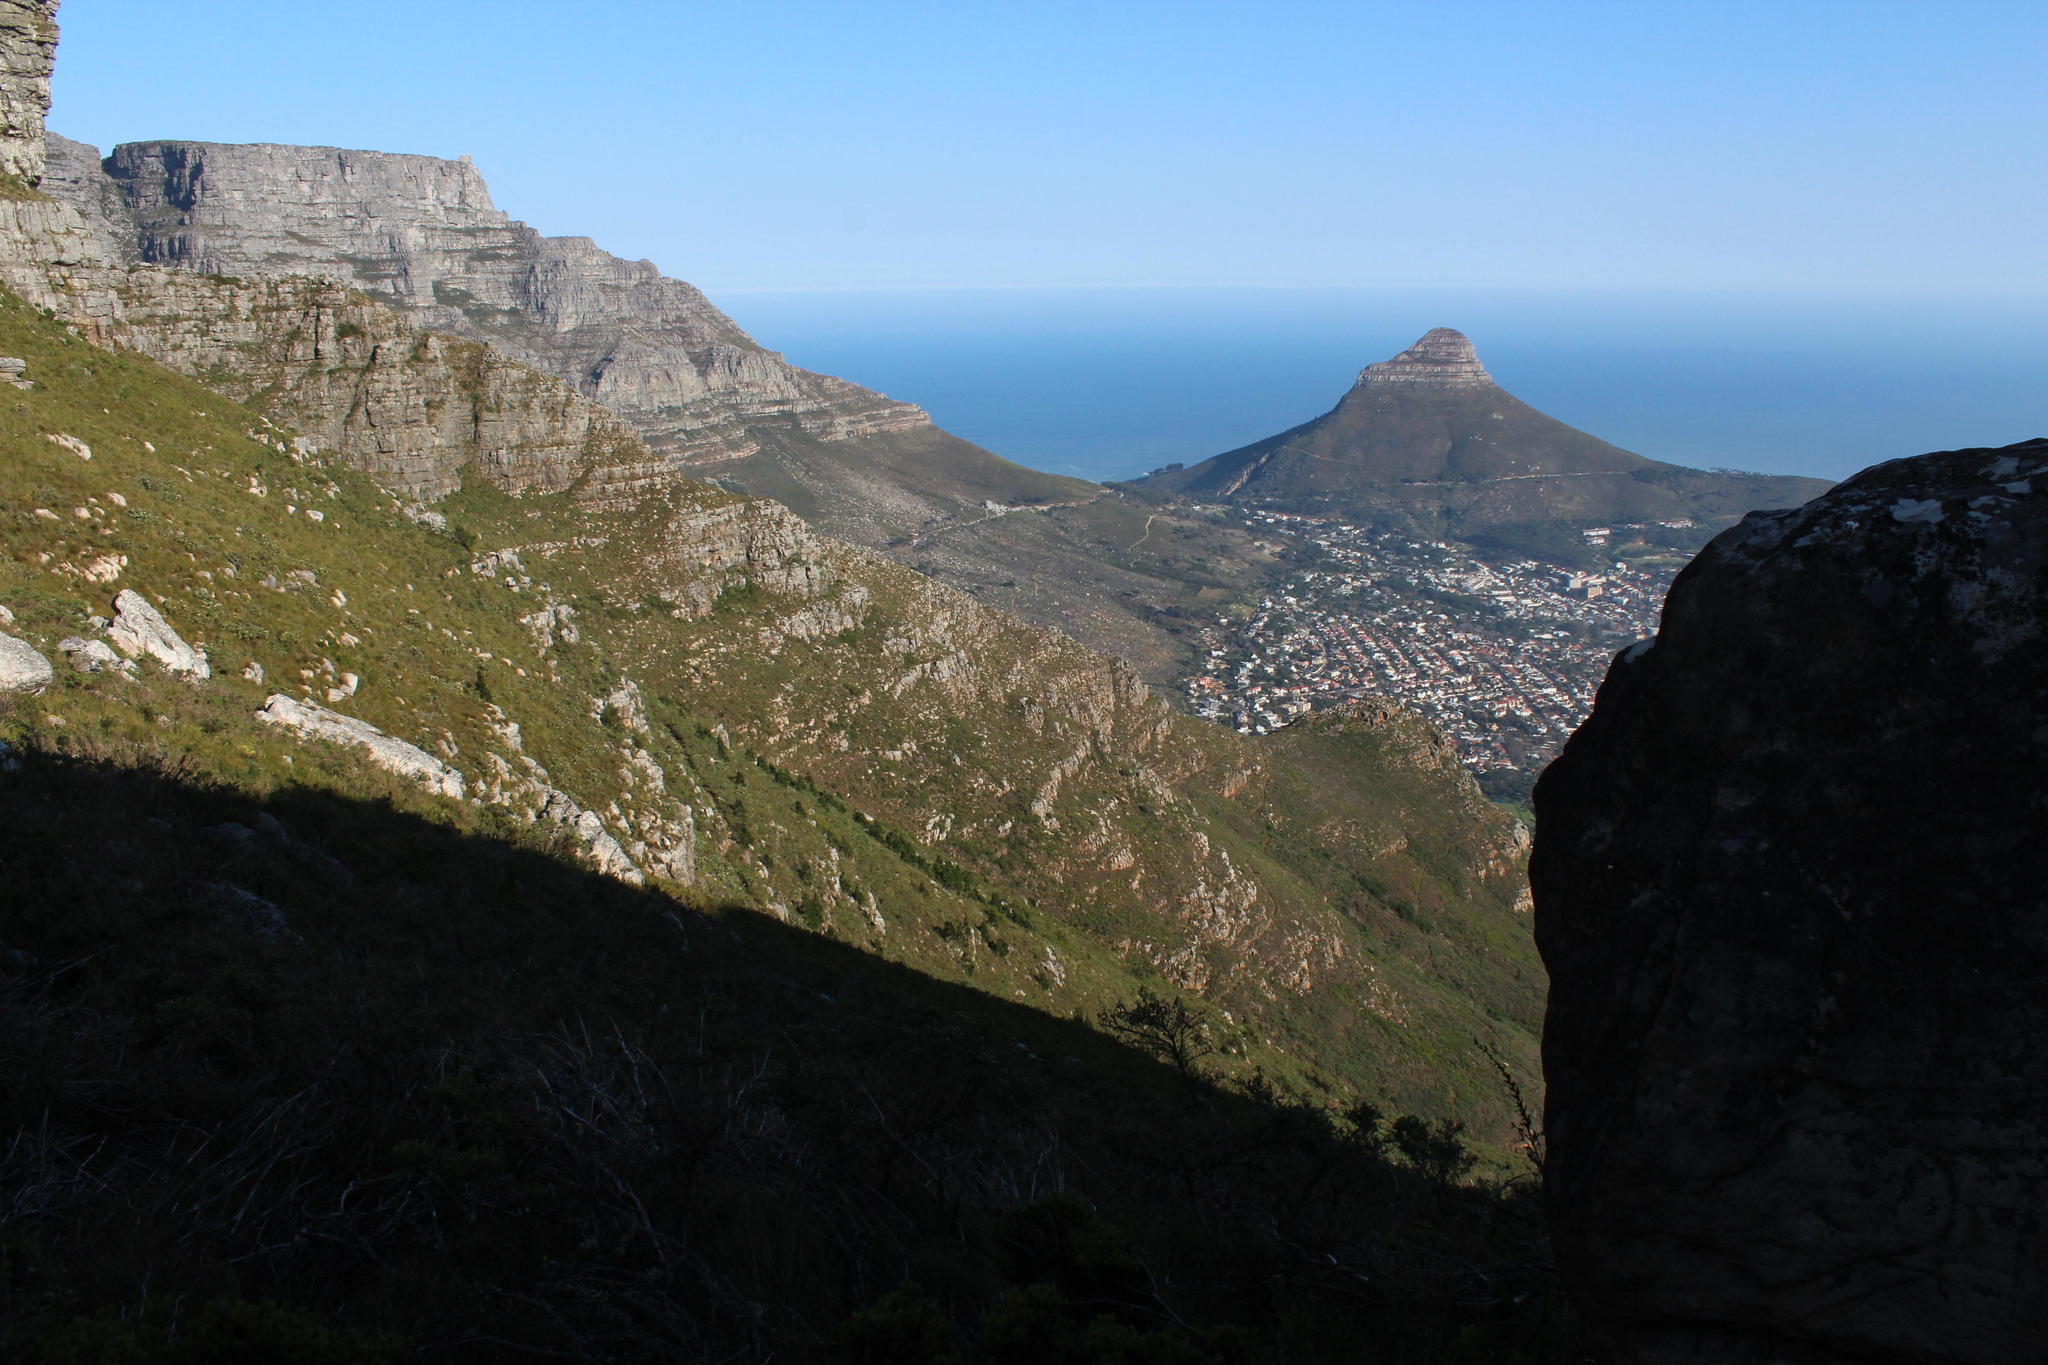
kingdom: Plantae
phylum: Tracheophyta
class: Magnoliopsida
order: Fabales
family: Fabaceae
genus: Acacia
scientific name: Acacia melanoxylon
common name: Blackwood
